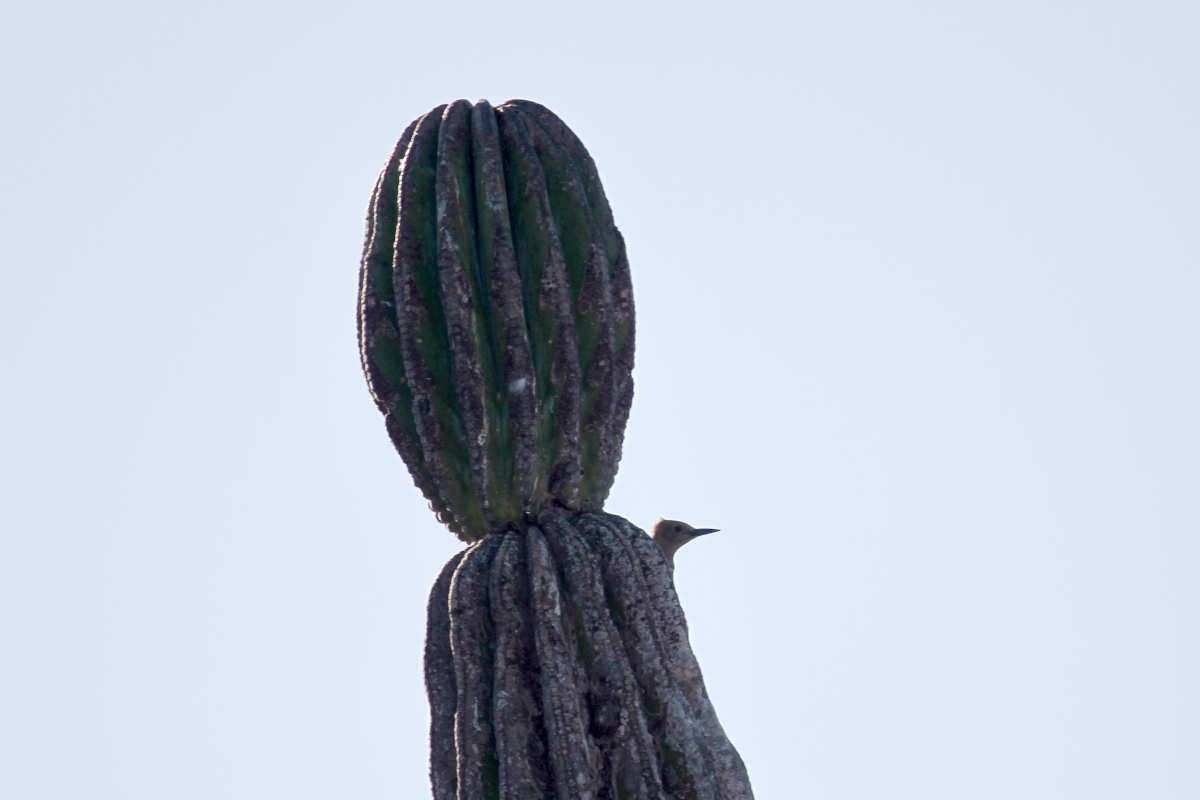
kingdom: Animalia
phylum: Chordata
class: Aves
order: Piciformes
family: Picidae
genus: Melanerpes
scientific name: Melanerpes uropygialis
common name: Gila woodpecker
